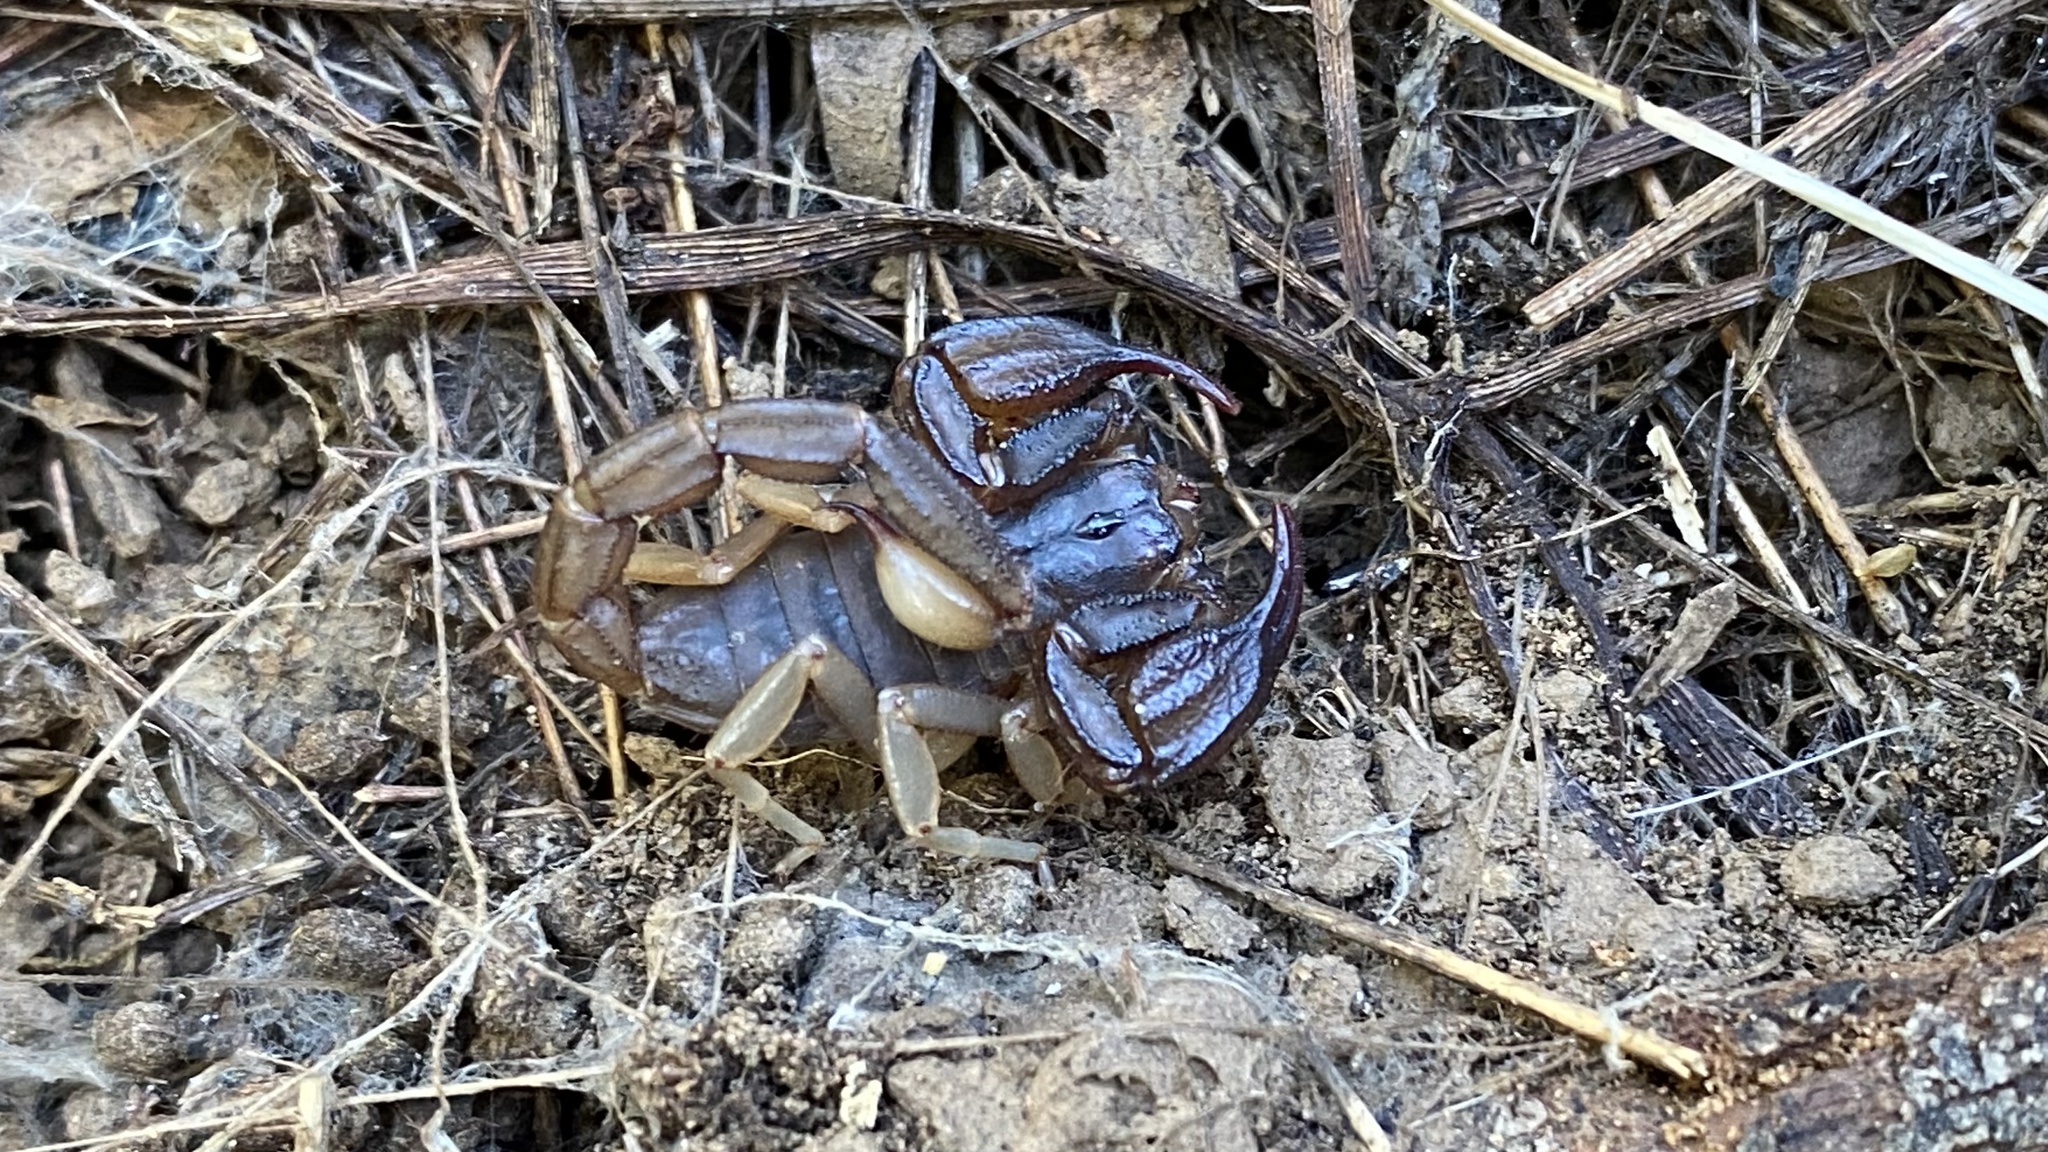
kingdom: Animalia
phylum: Arthropoda
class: Arachnida
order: Scorpiones
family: Chactidae
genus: Uroctonus
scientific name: Uroctonus mordax
